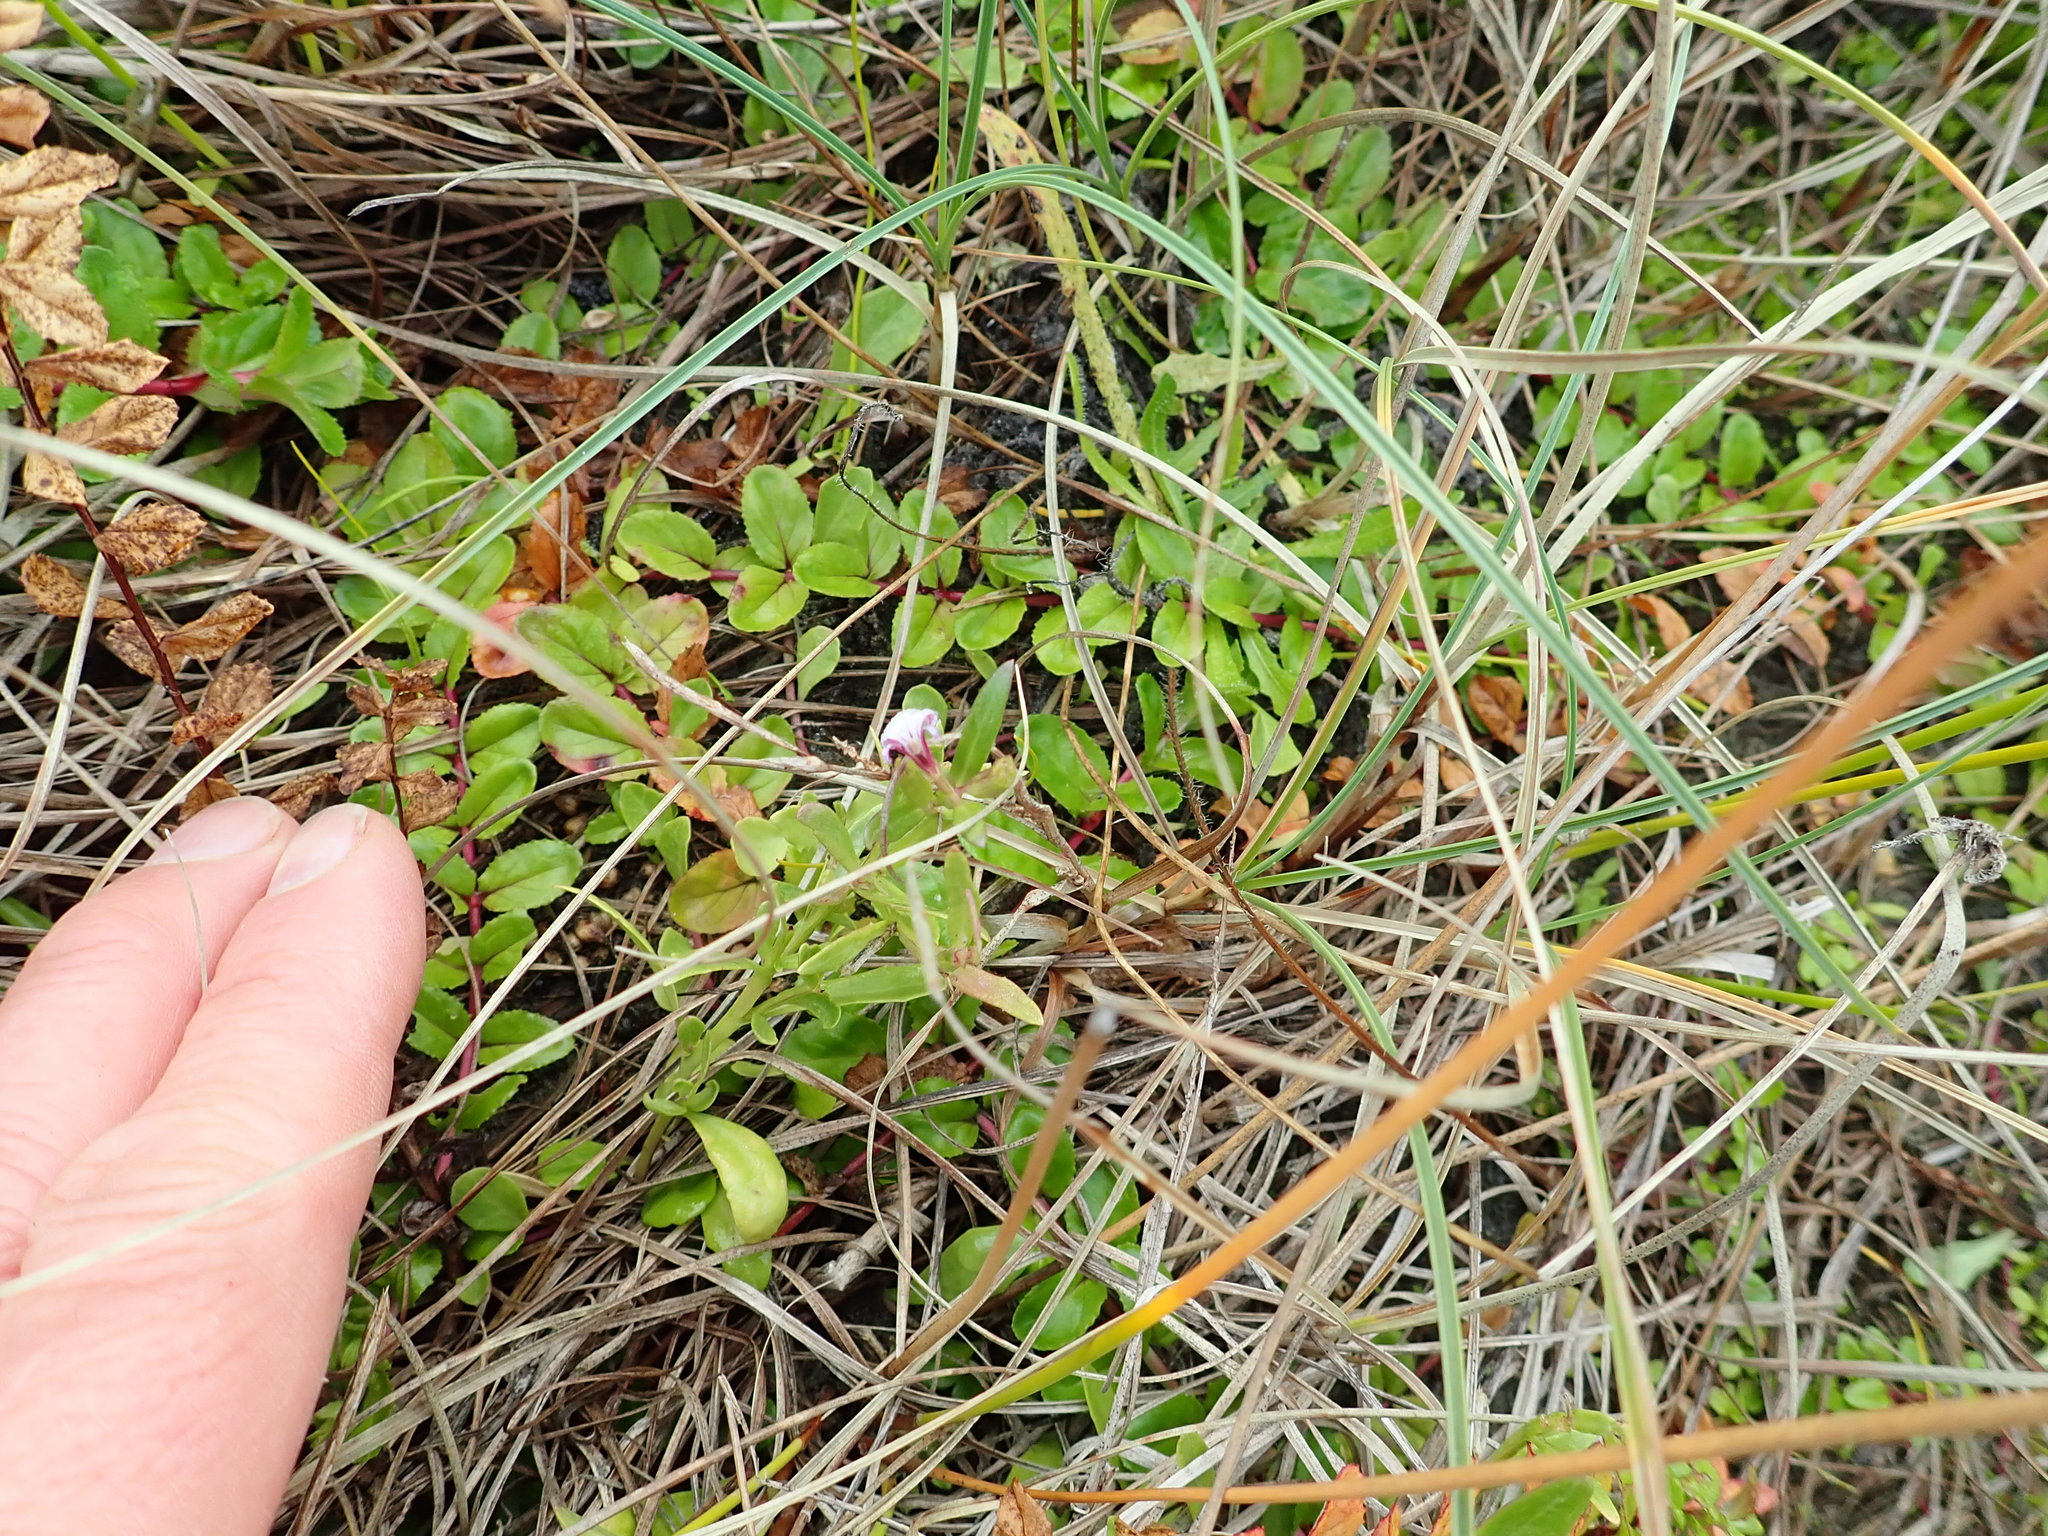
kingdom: Plantae
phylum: Tracheophyta
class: Magnoliopsida
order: Asterales
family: Campanulaceae
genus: Lobelia
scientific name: Lobelia anceps
